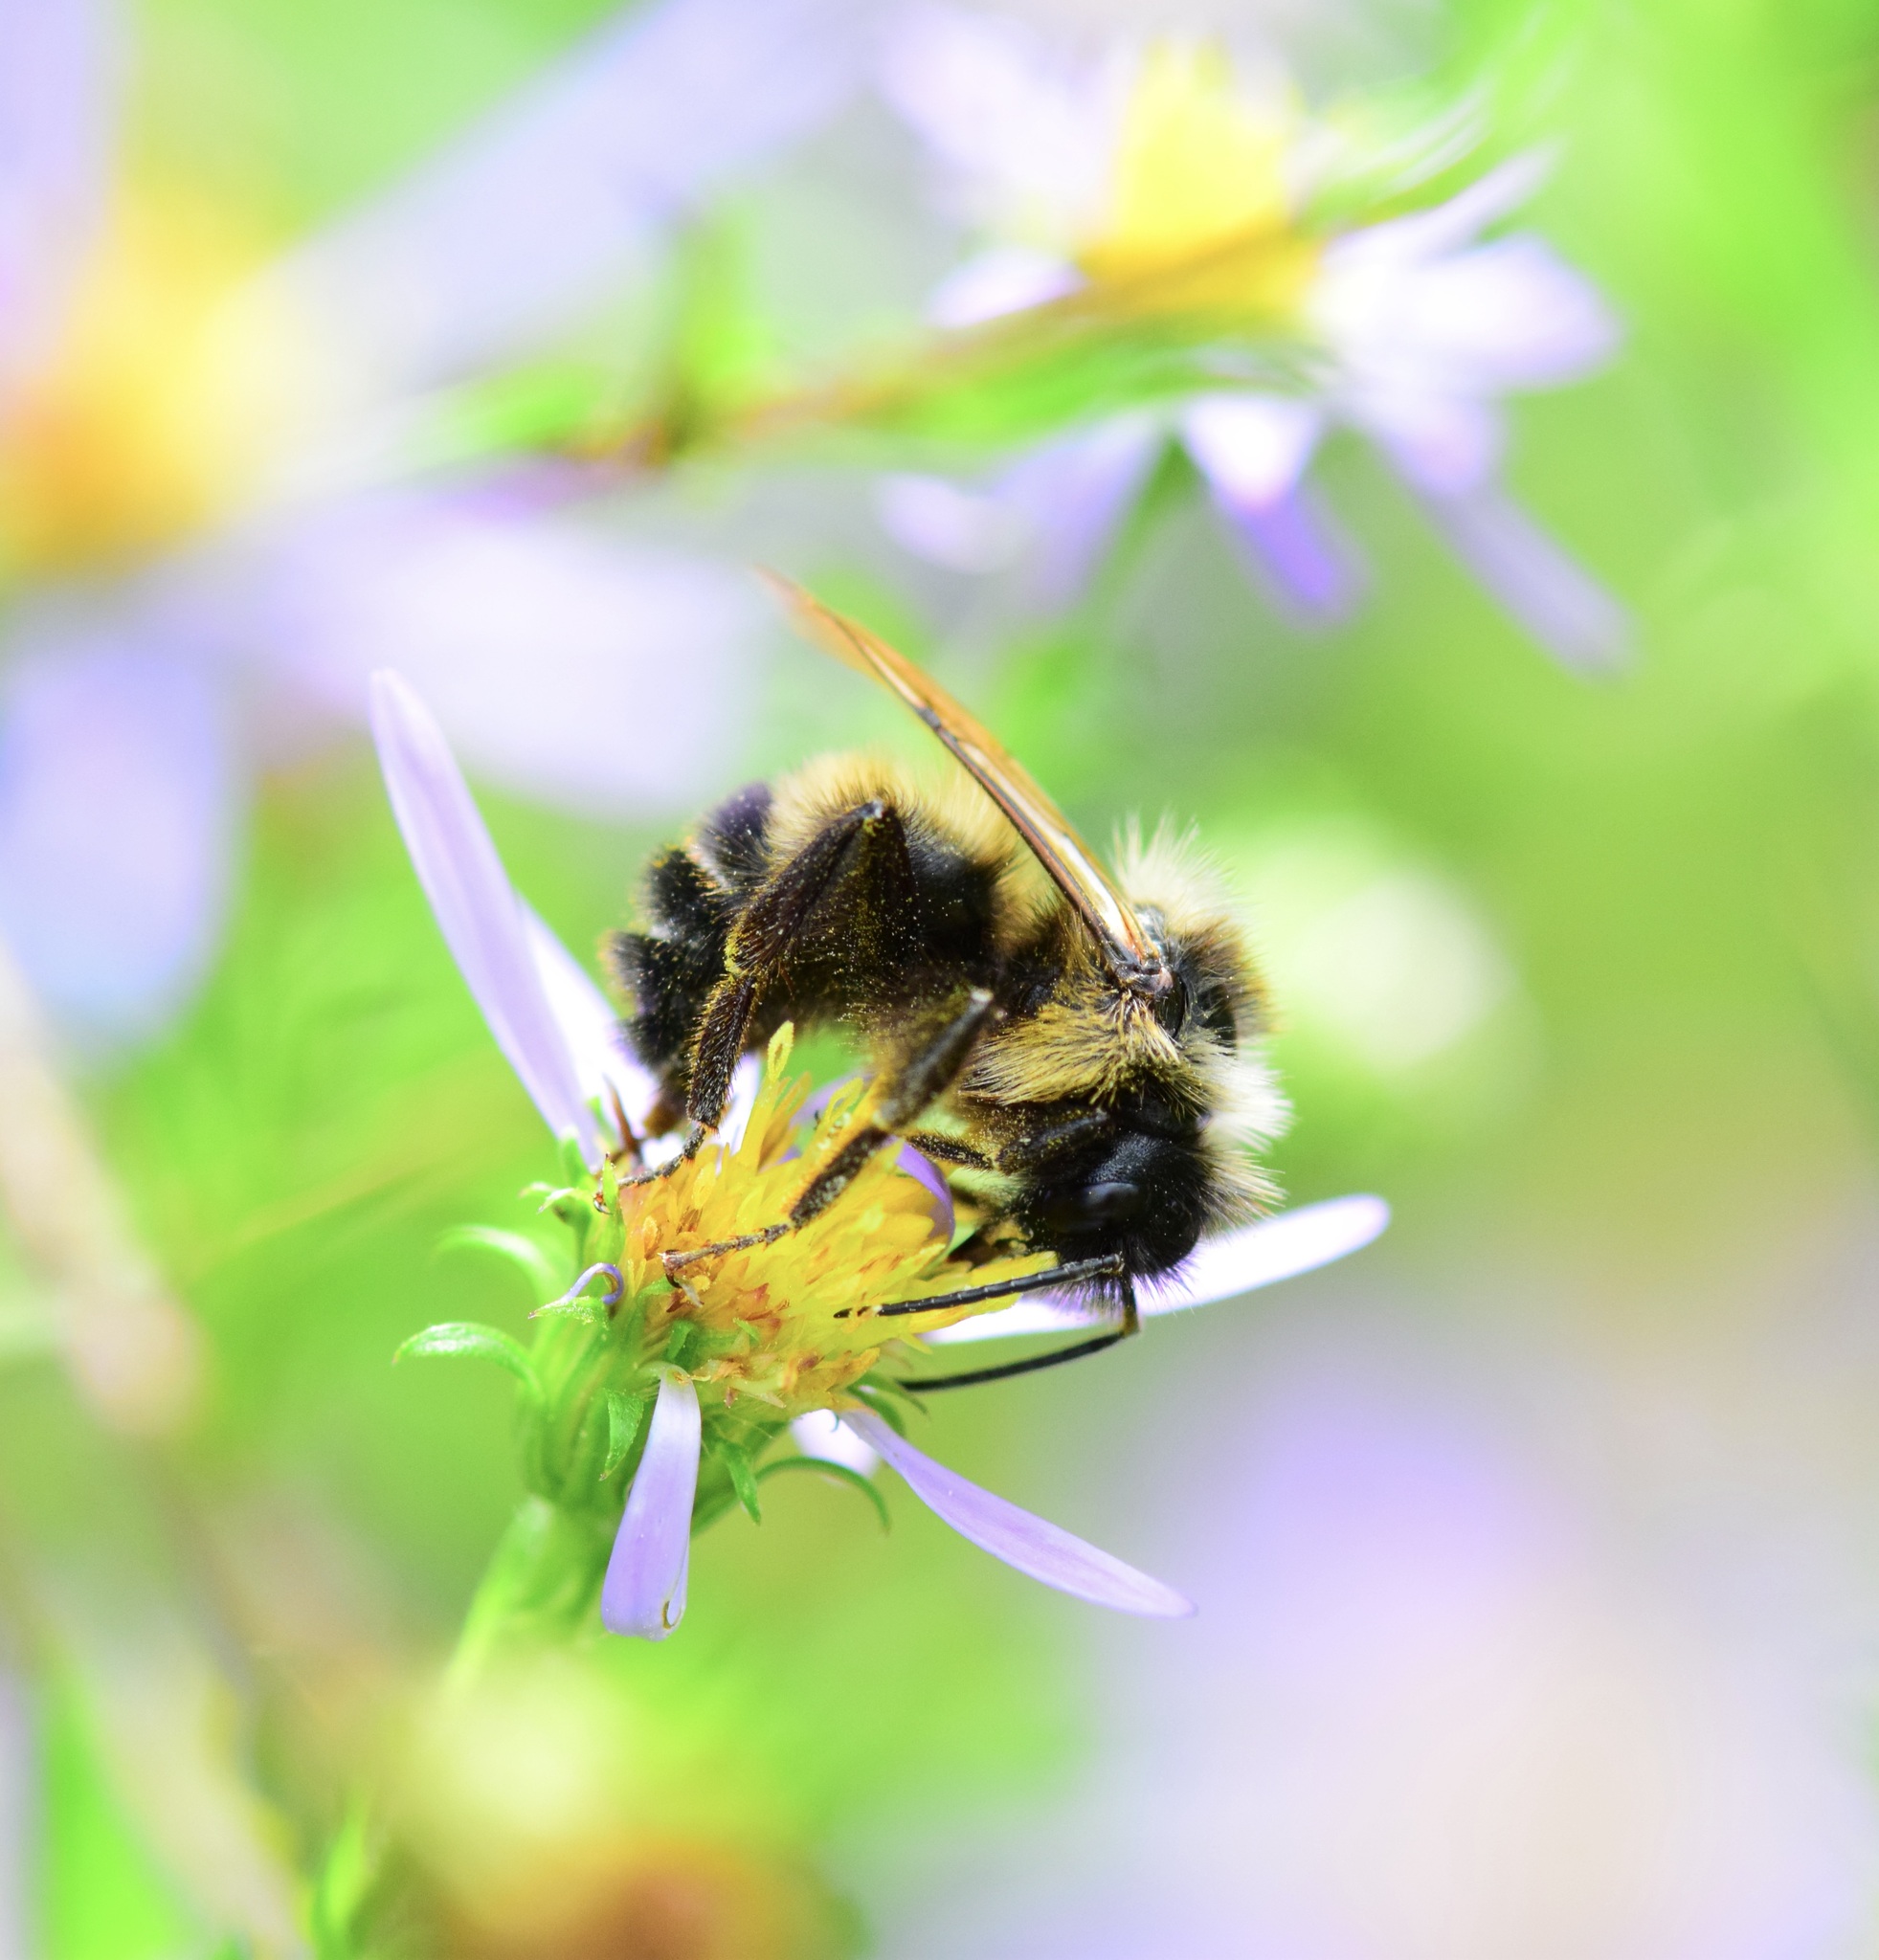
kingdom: Animalia
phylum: Arthropoda
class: Insecta
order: Hymenoptera
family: Apidae
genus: Bombus
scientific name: Bombus citrinus
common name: Lemon cuckoo bumble bee
